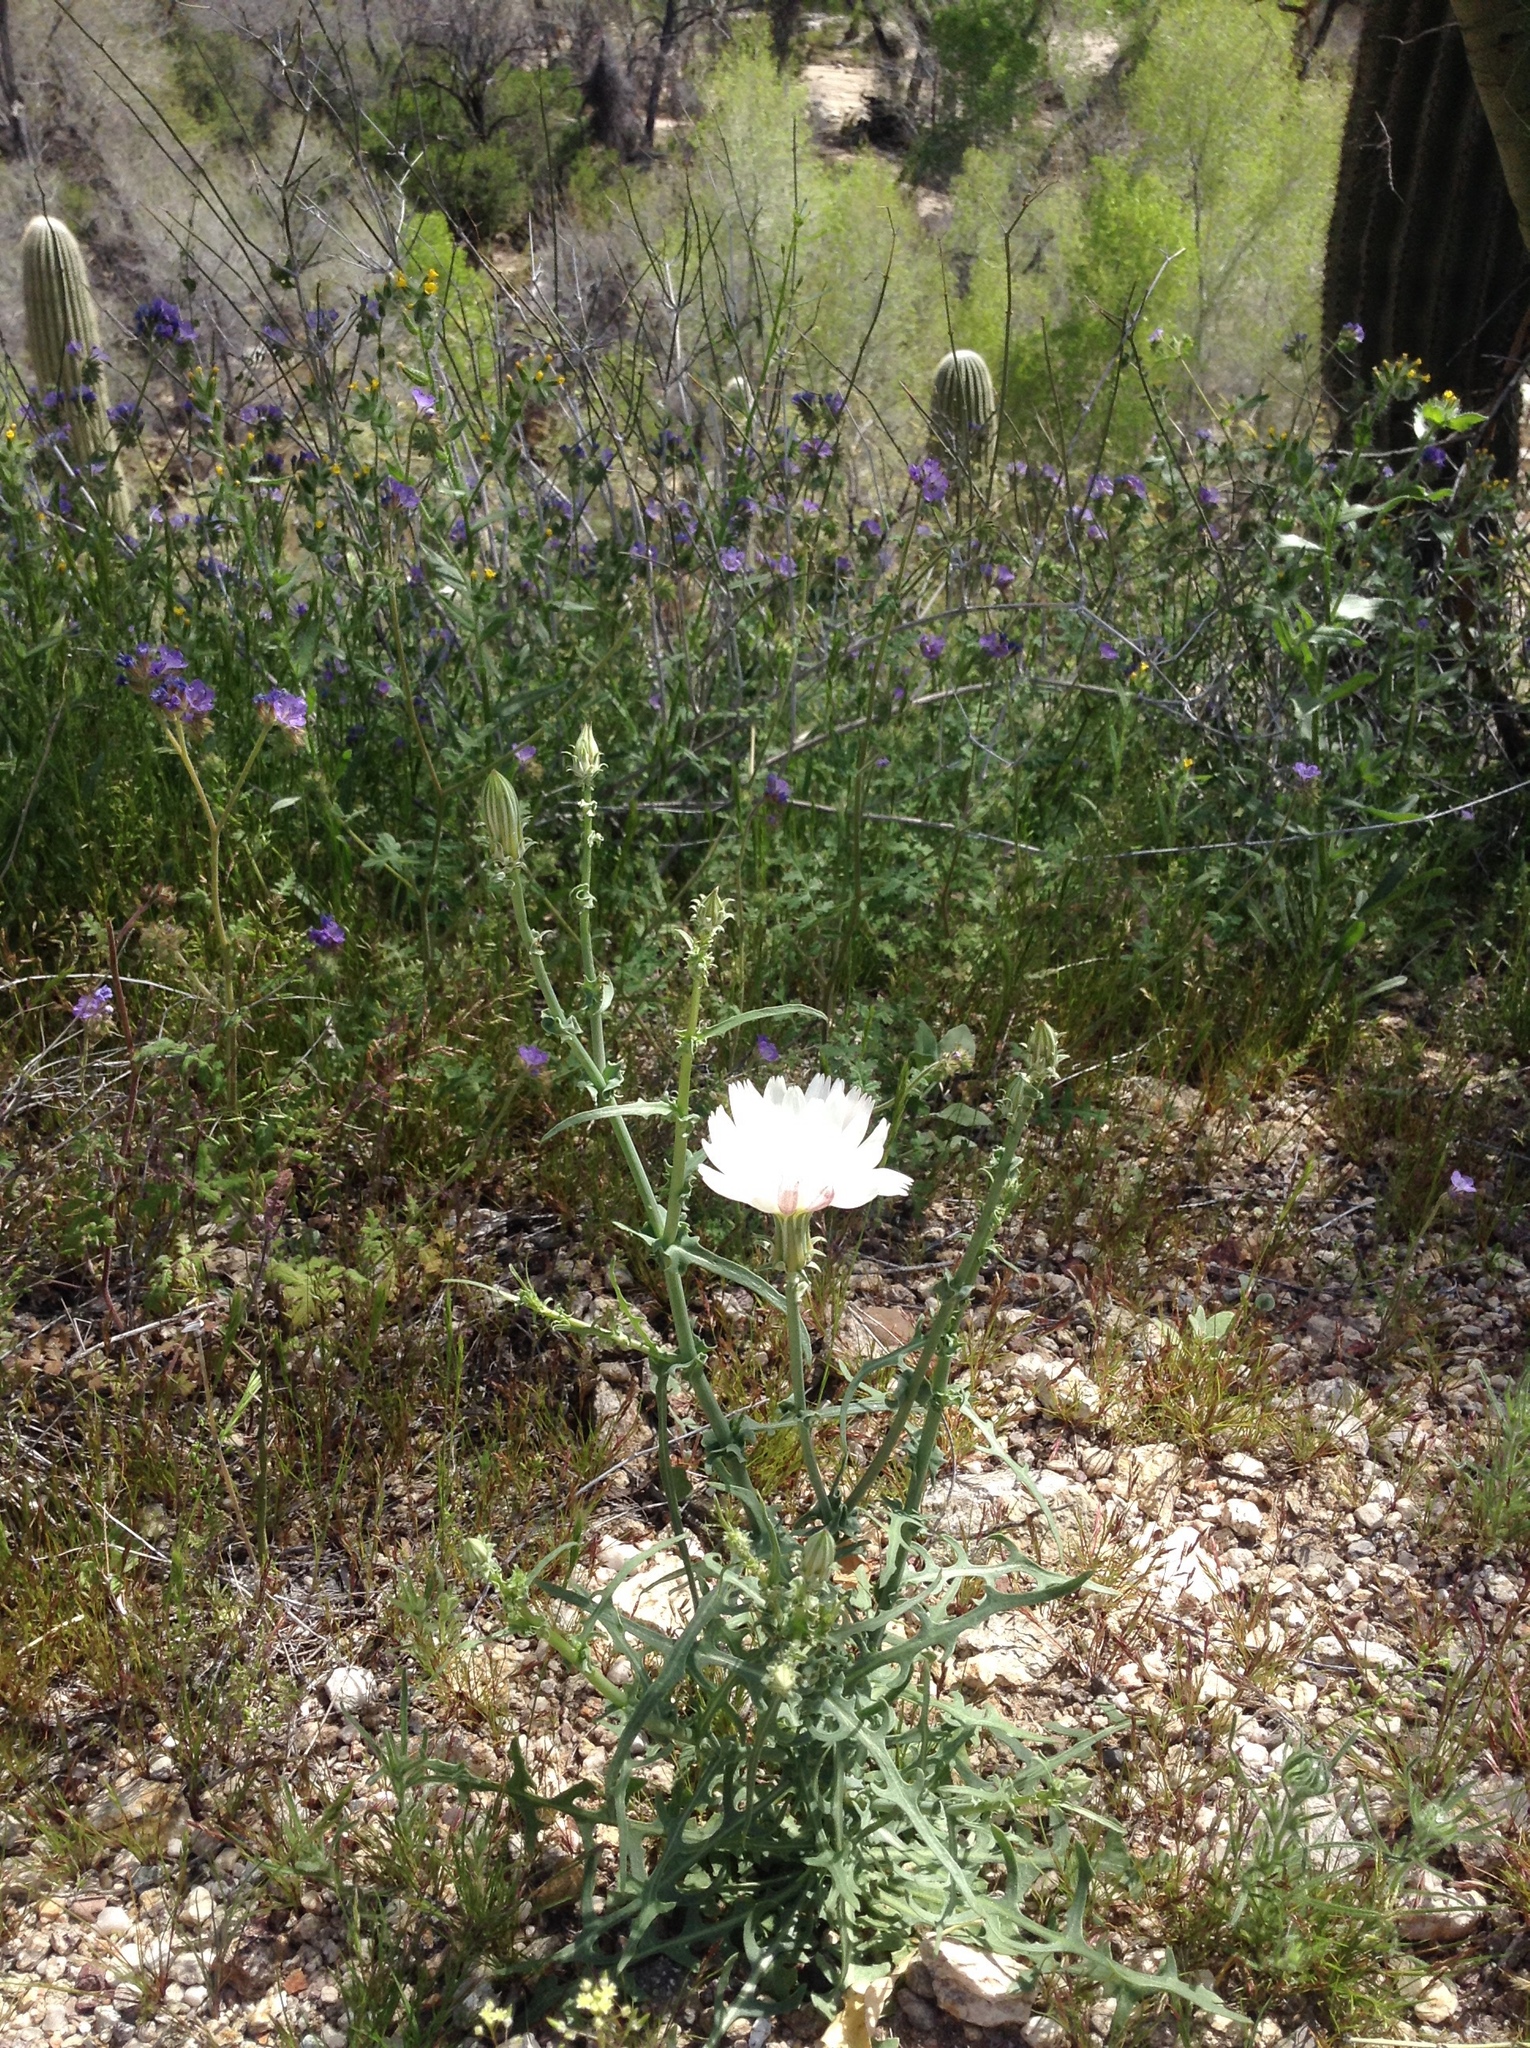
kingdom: Plantae
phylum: Tracheophyta
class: Magnoliopsida
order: Asterales
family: Asteraceae
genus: Rafinesquia
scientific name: Rafinesquia neomexicana
